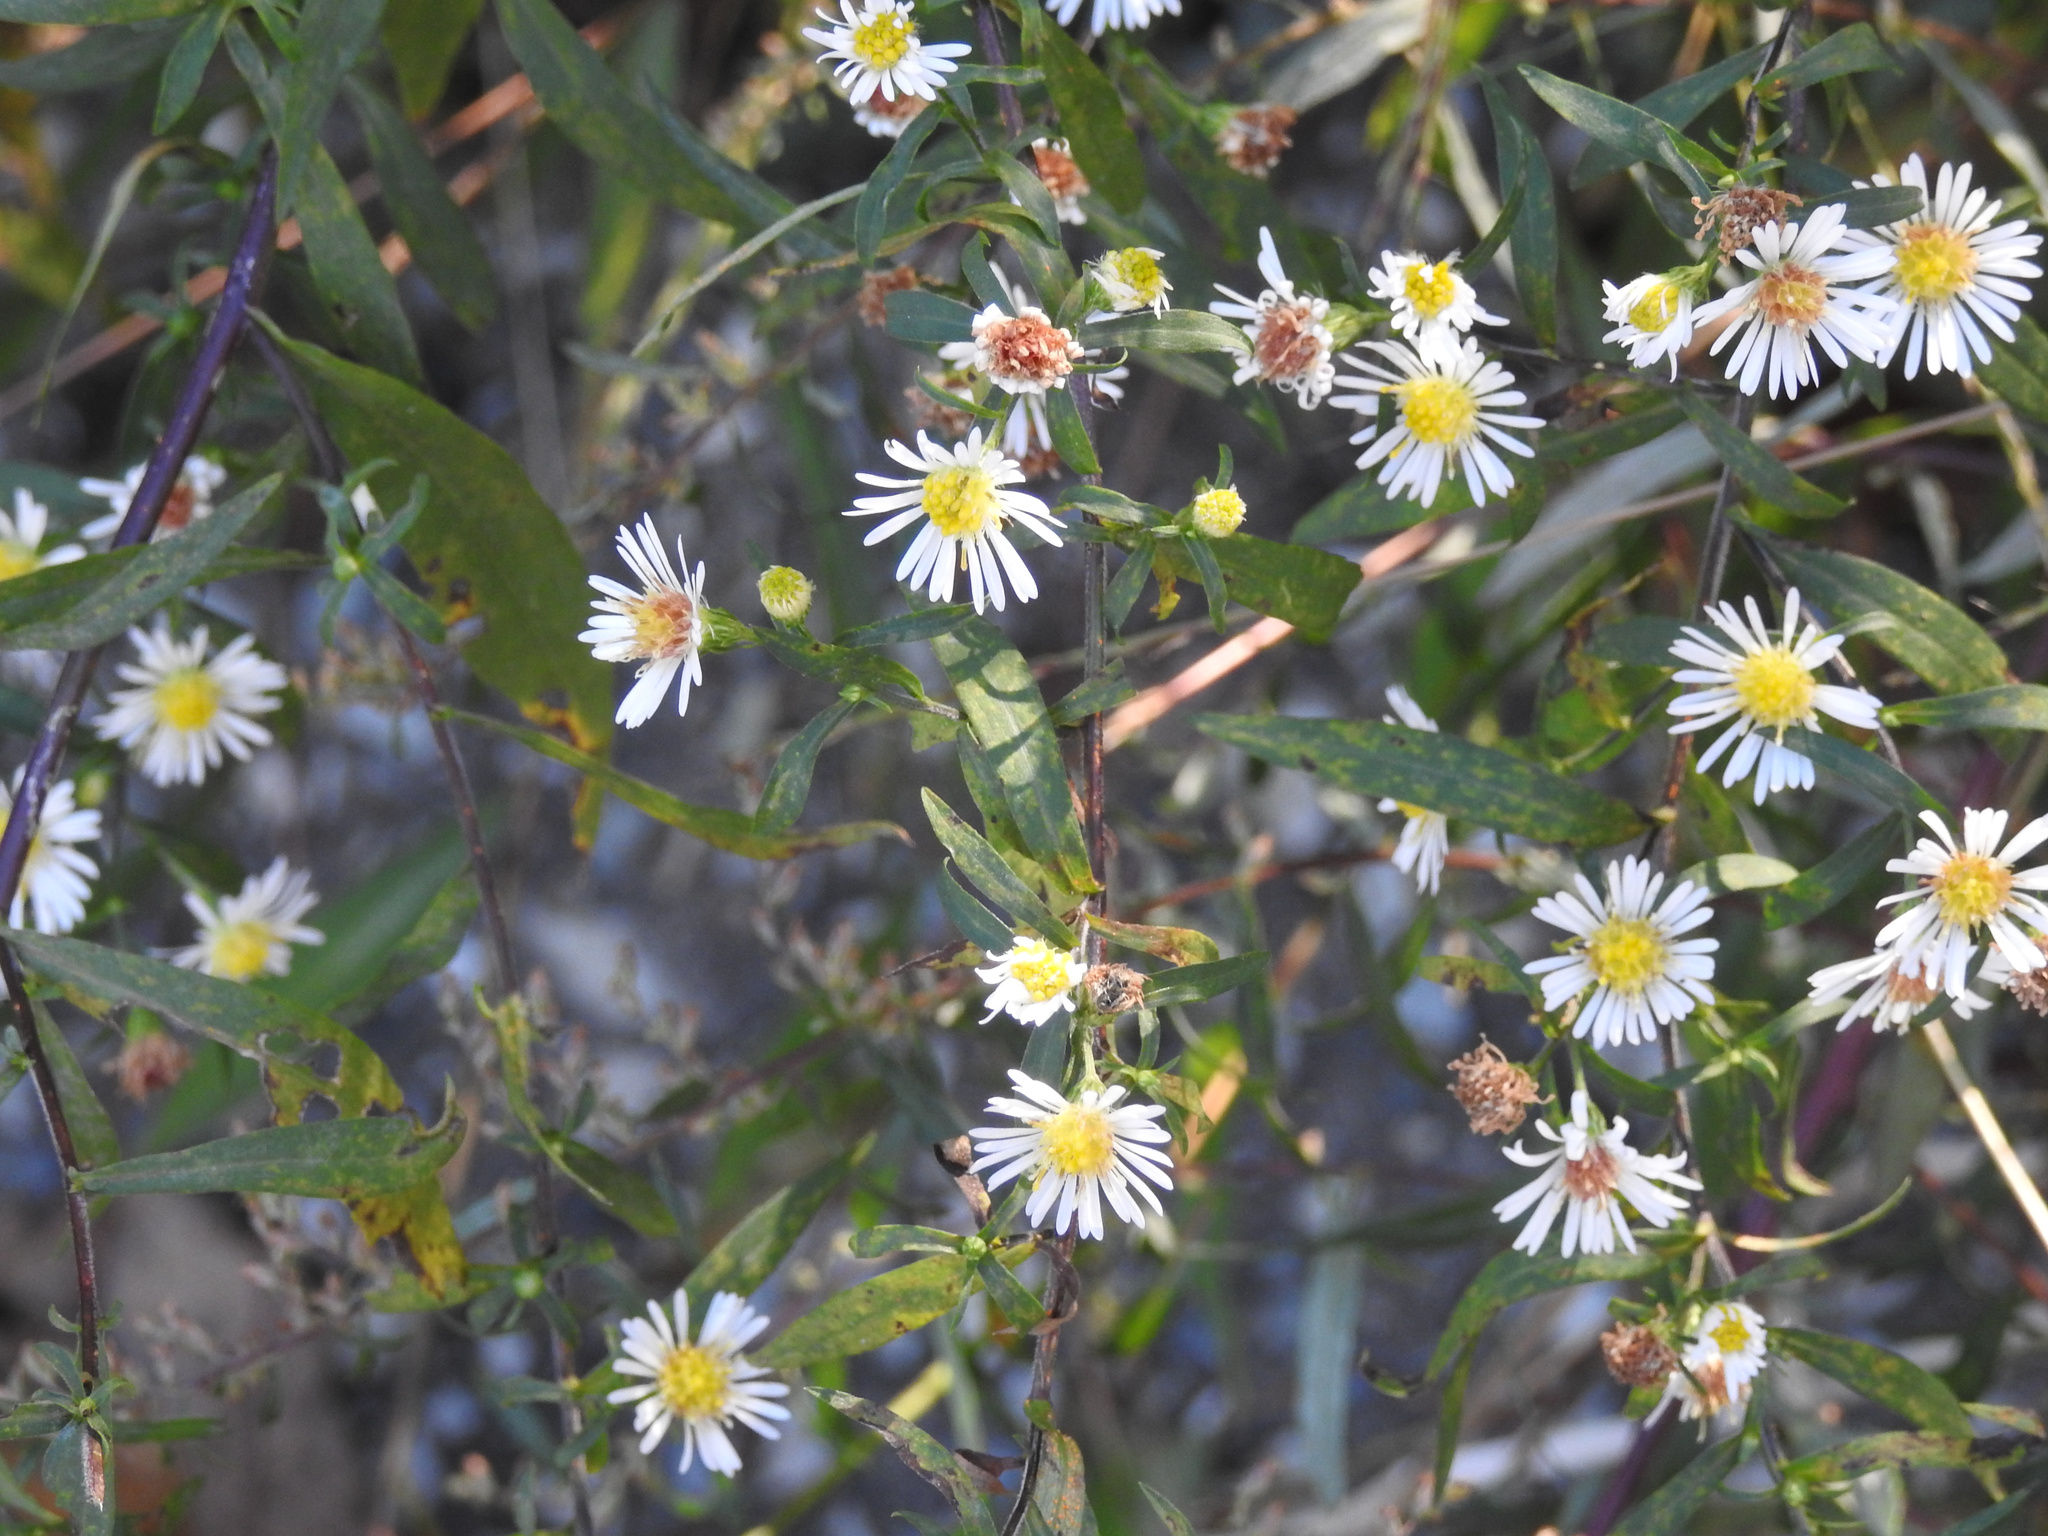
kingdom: Plantae
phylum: Tracheophyta
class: Magnoliopsida
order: Asterales
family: Asteraceae
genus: Symphyotrichum
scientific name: Symphyotrichum lanceolatum
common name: Panicled aster
